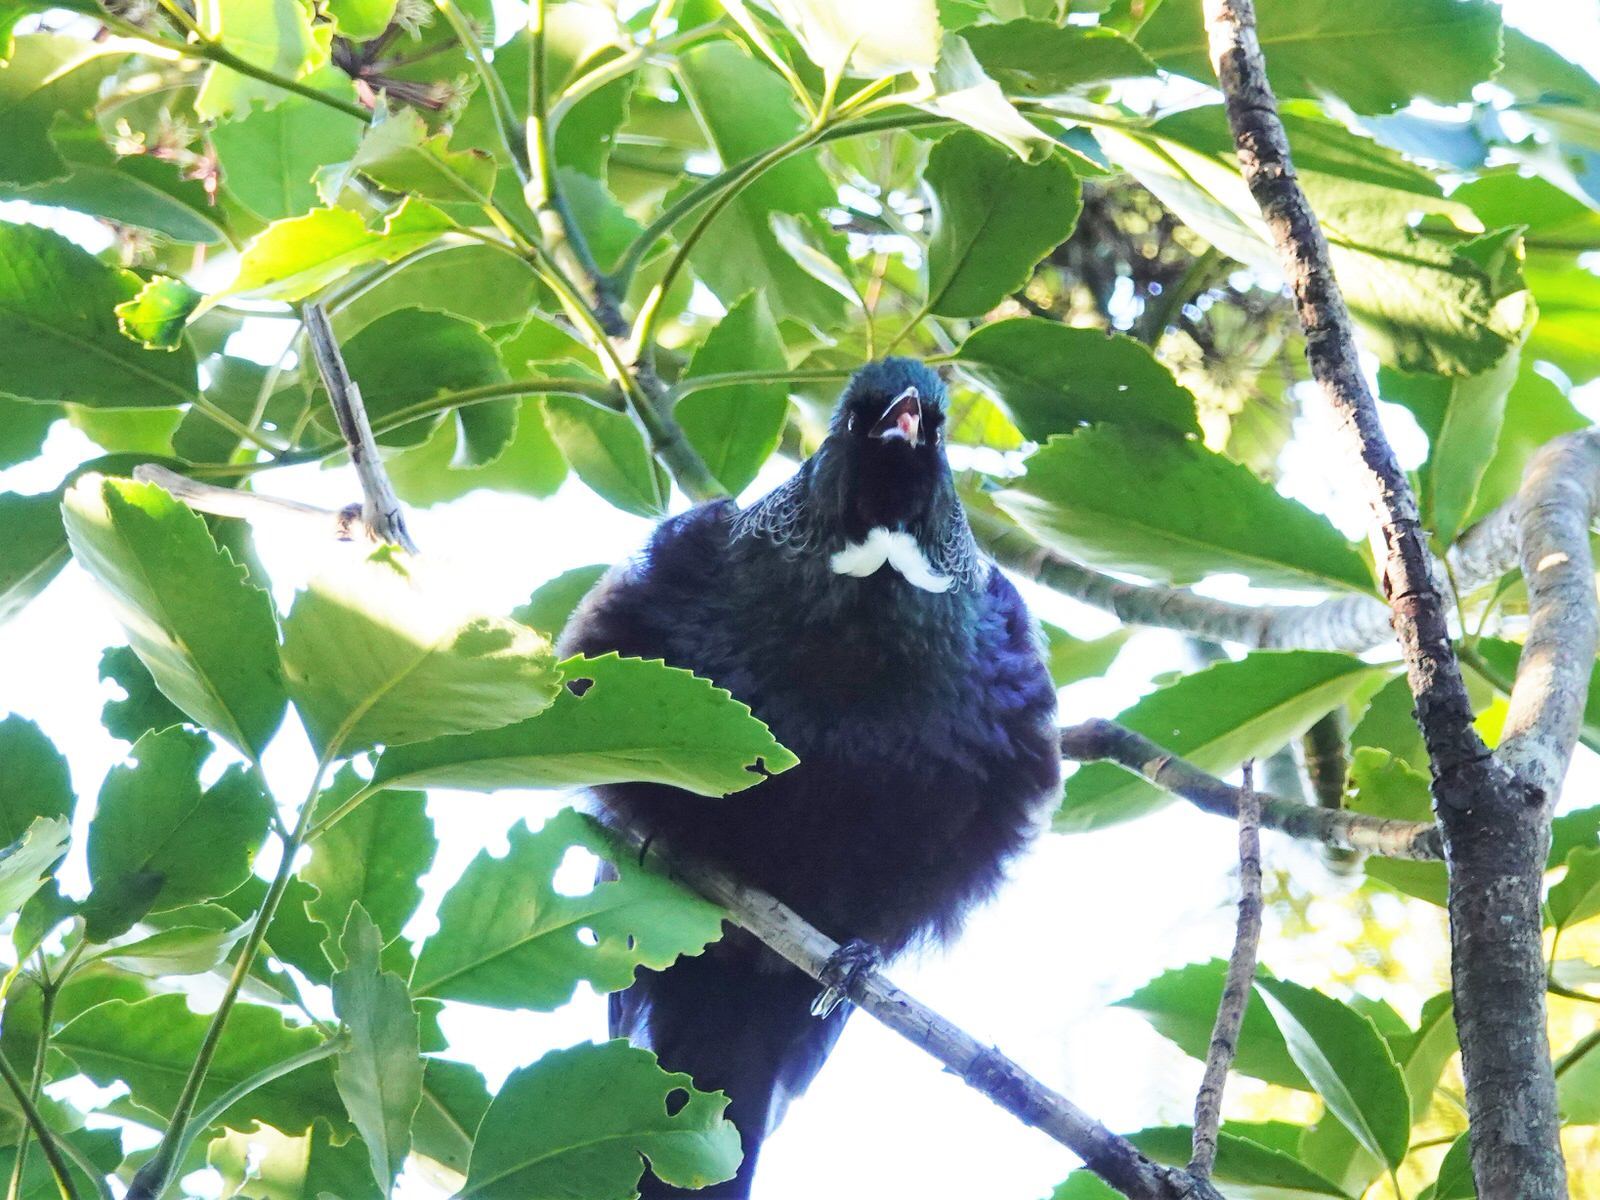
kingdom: Animalia
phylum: Chordata
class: Aves
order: Passeriformes
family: Meliphagidae
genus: Prosthemadera
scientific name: Prosthemadera novaeseelandiae
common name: Tui
